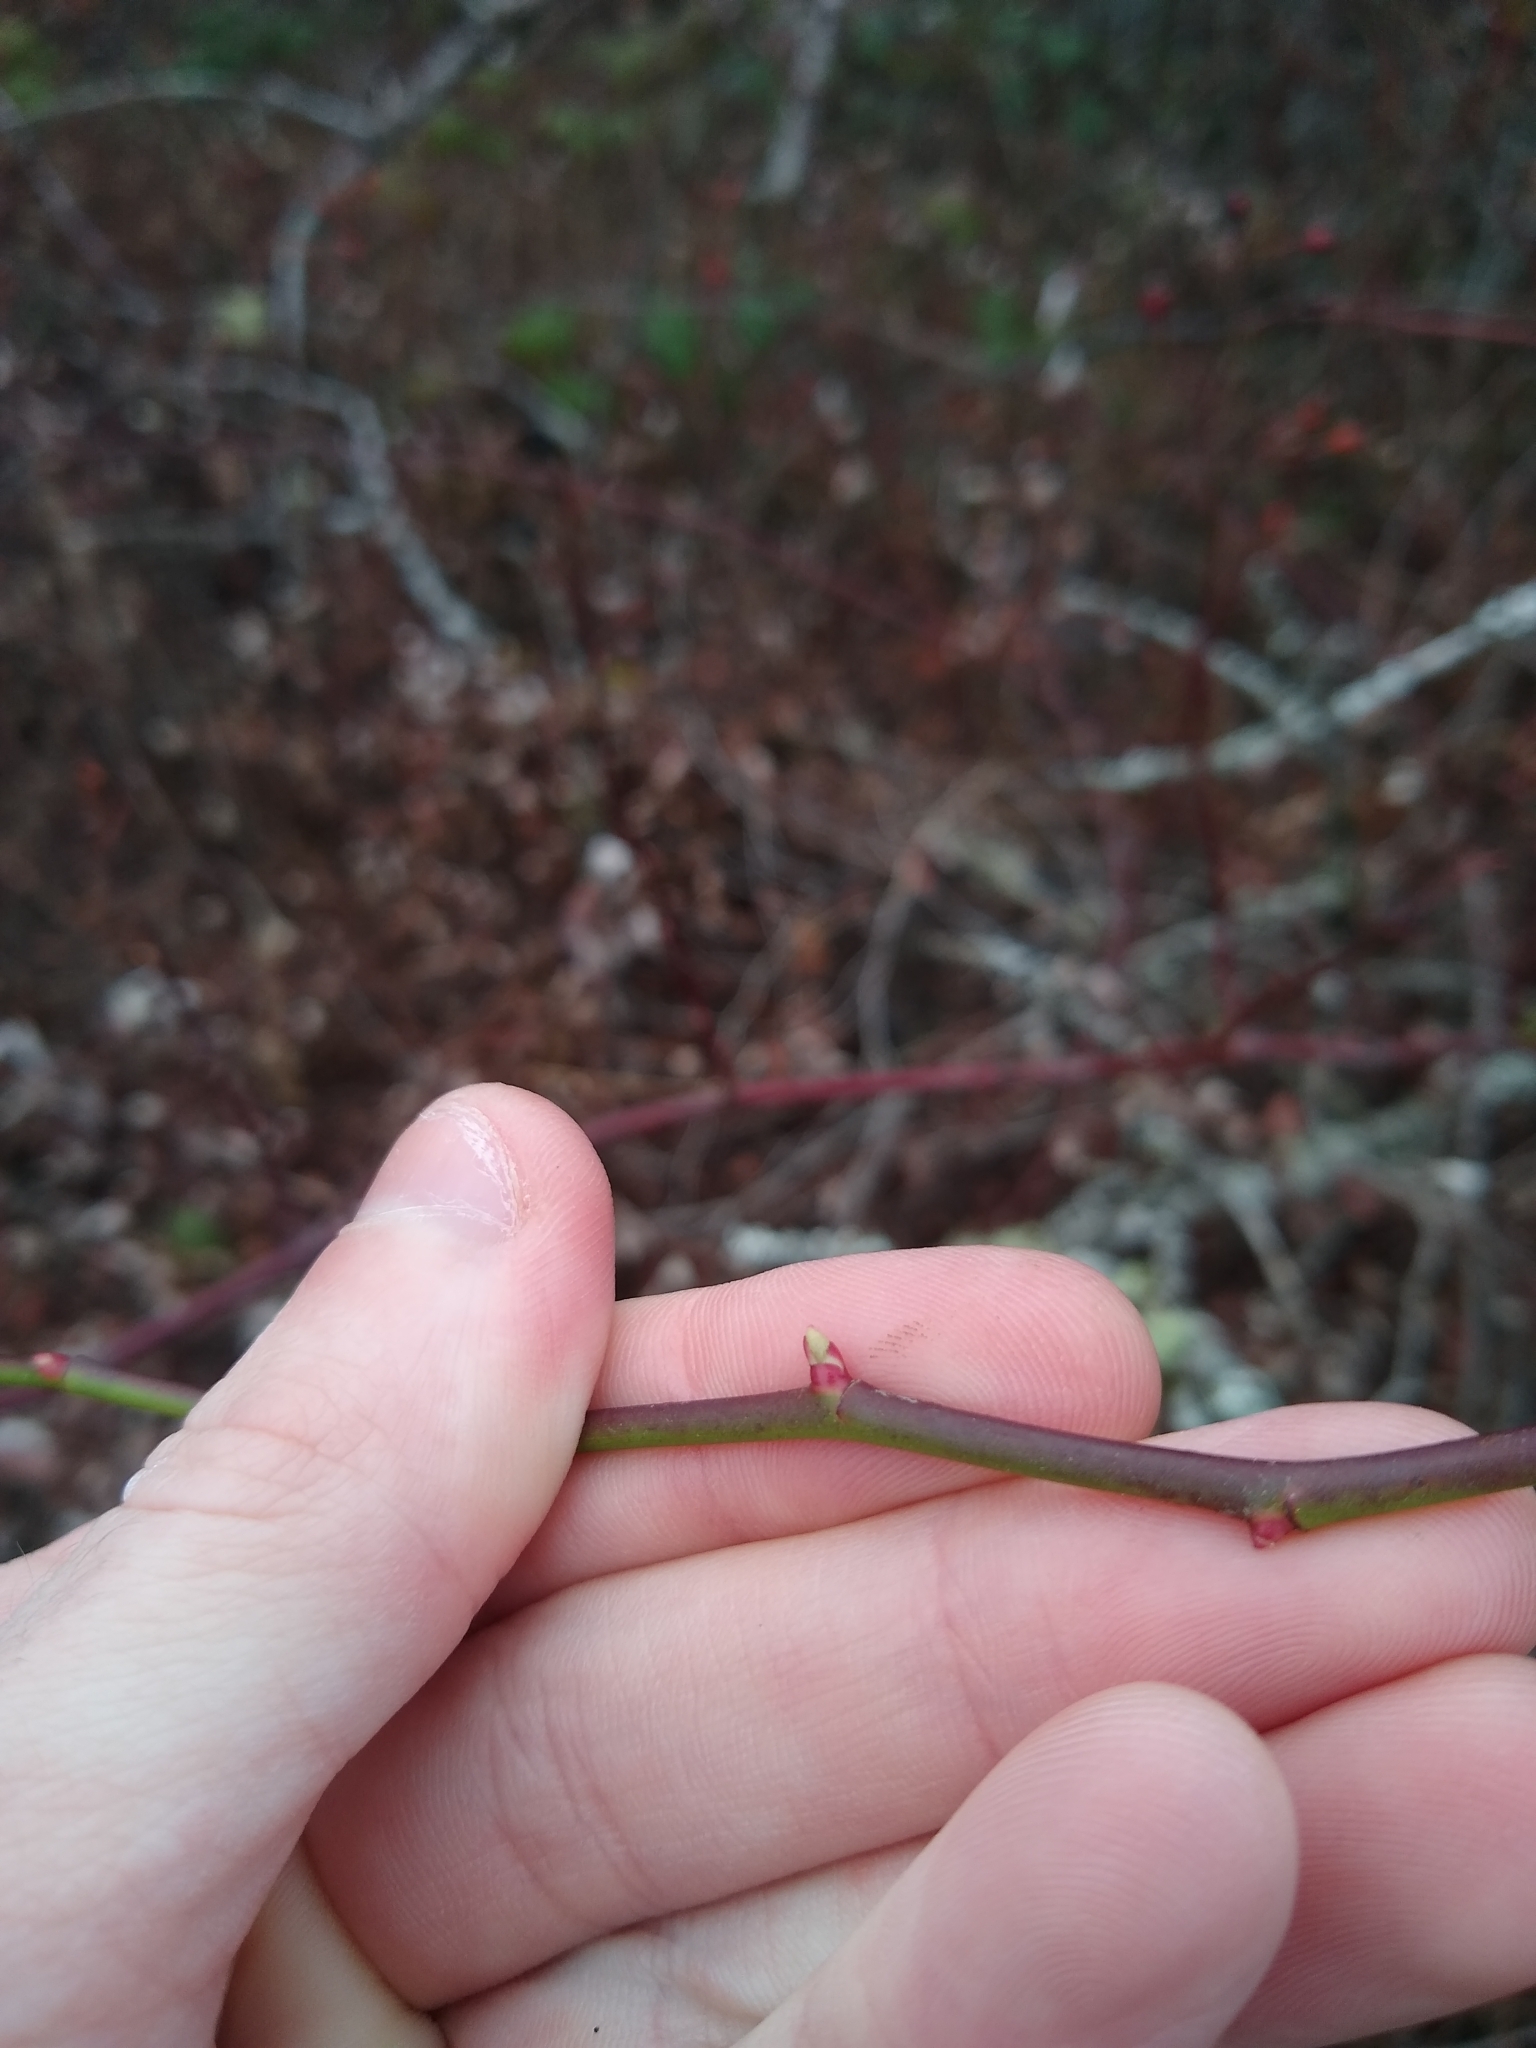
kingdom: Plantae
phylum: Tracheophyta
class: Magnoliopsida
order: Rosales
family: Rosaceae
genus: Rosa
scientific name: Rosa multiflora
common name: Multiflora rose
